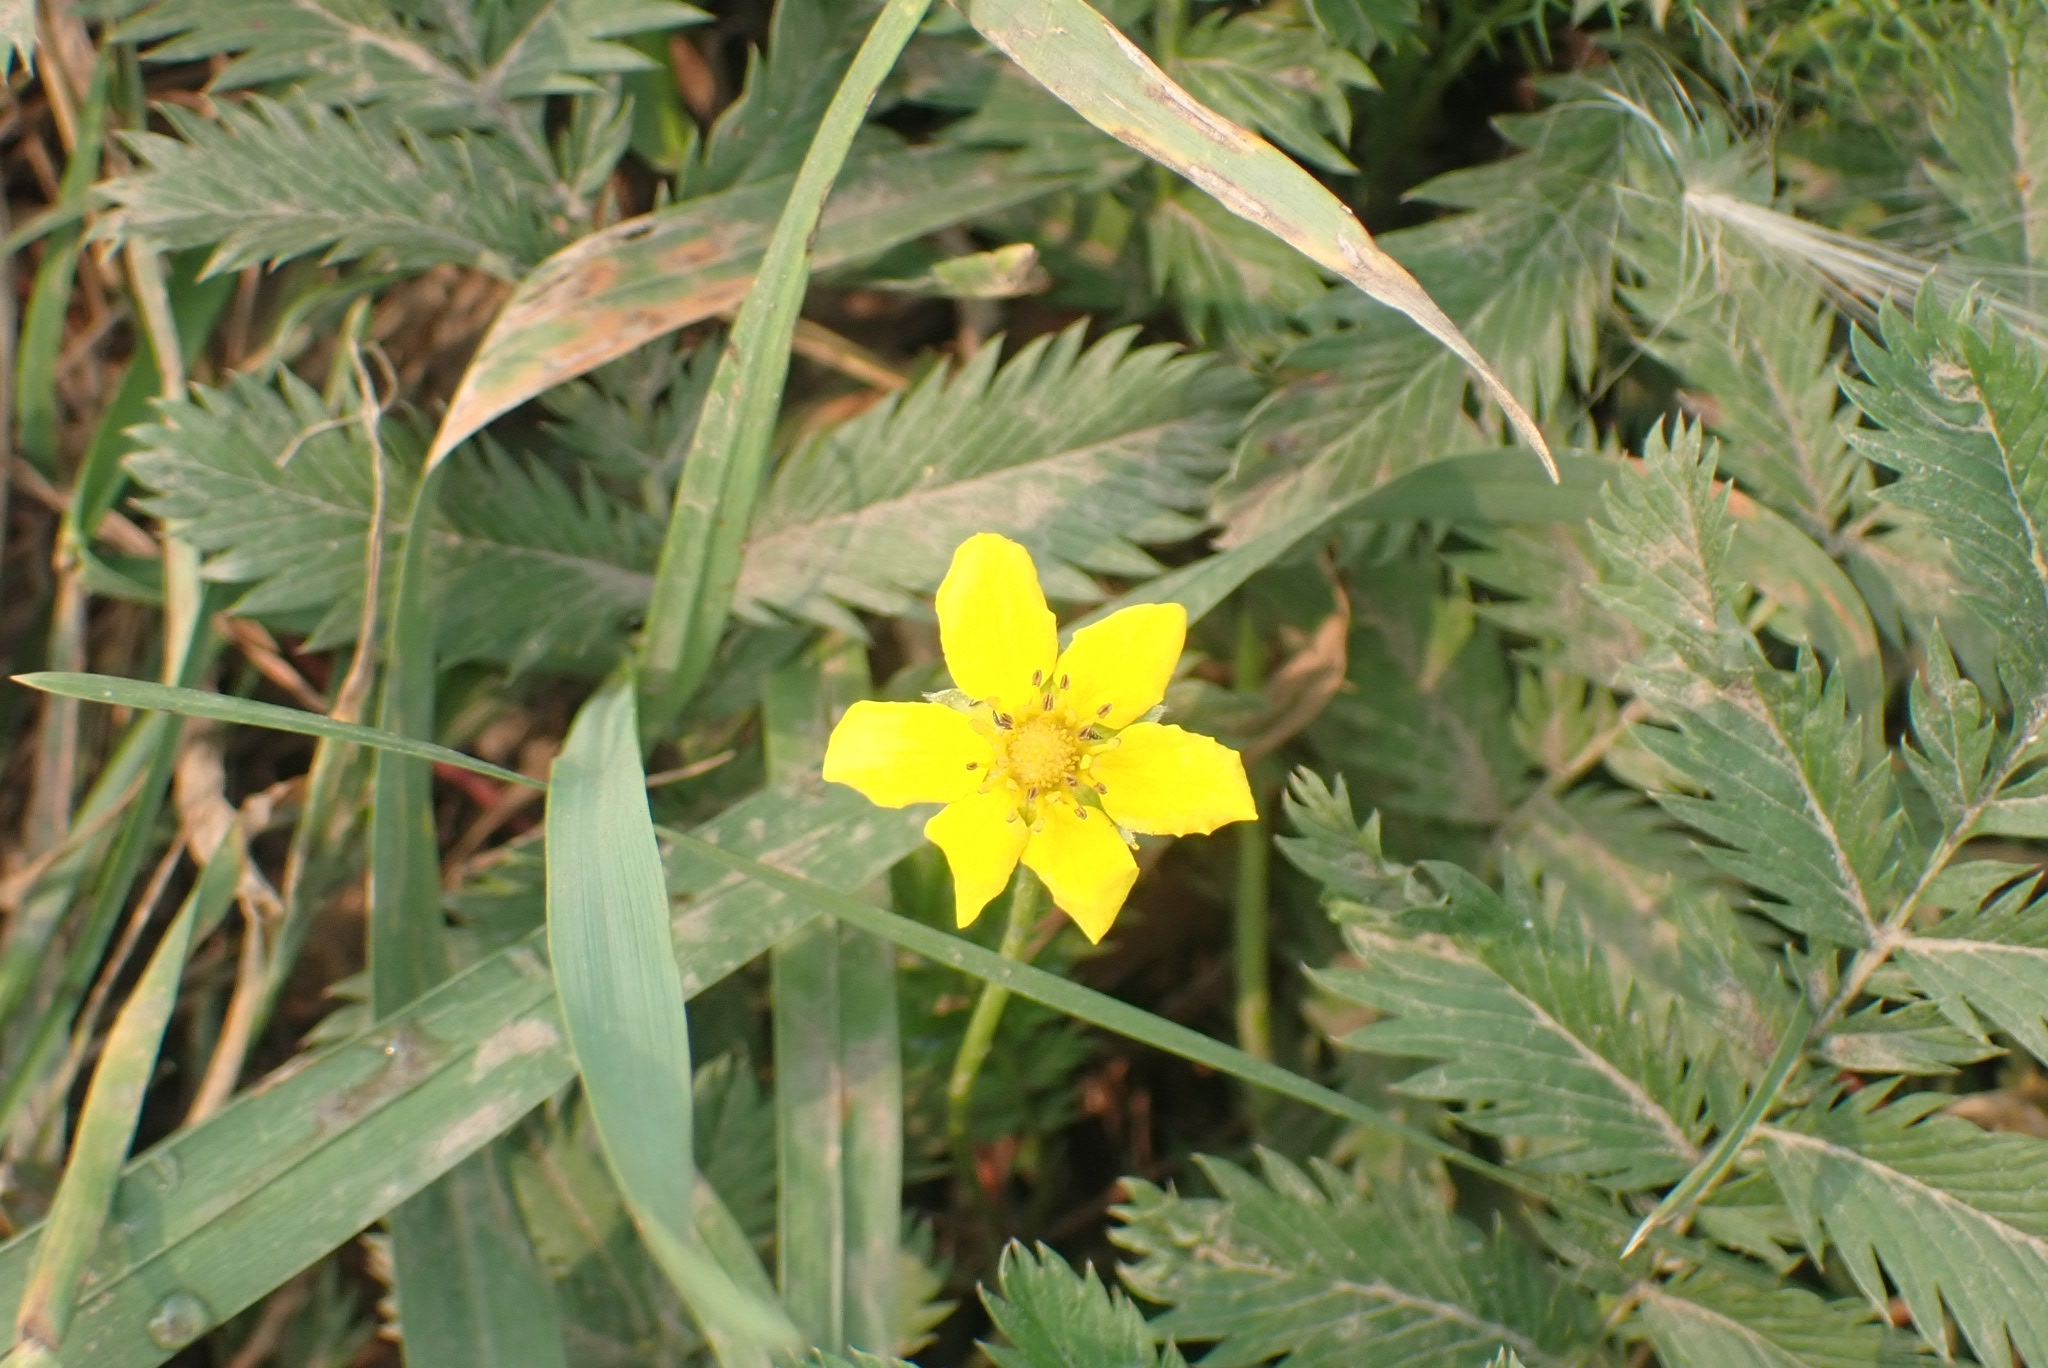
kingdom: Plantae
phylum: Tracheophyta
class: Magnoliopsida
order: Rosales
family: Rosaceae
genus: Argentina
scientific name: Argentina anserina
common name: Common silverweed
